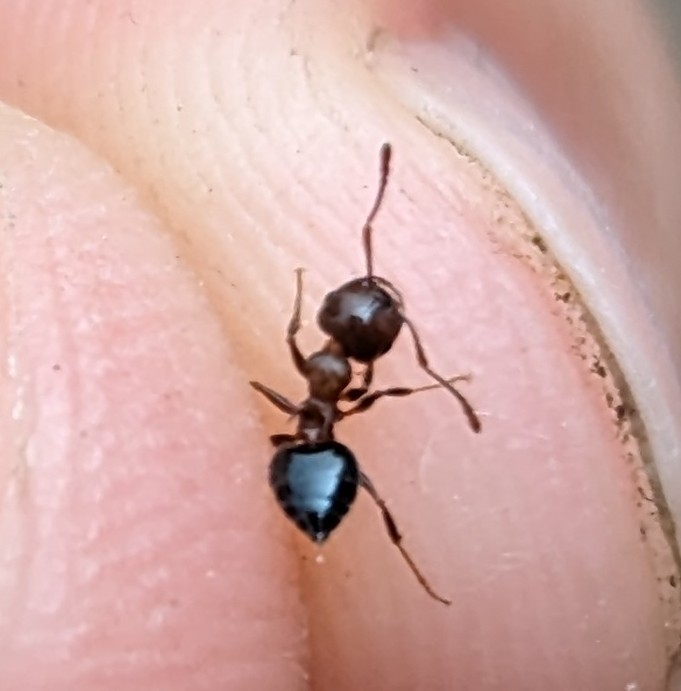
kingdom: Animalia
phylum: Arthropoda
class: Insecta
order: Hymenoptera
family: Formicidae
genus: Crematogaster
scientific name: Crematogaster cerasi
